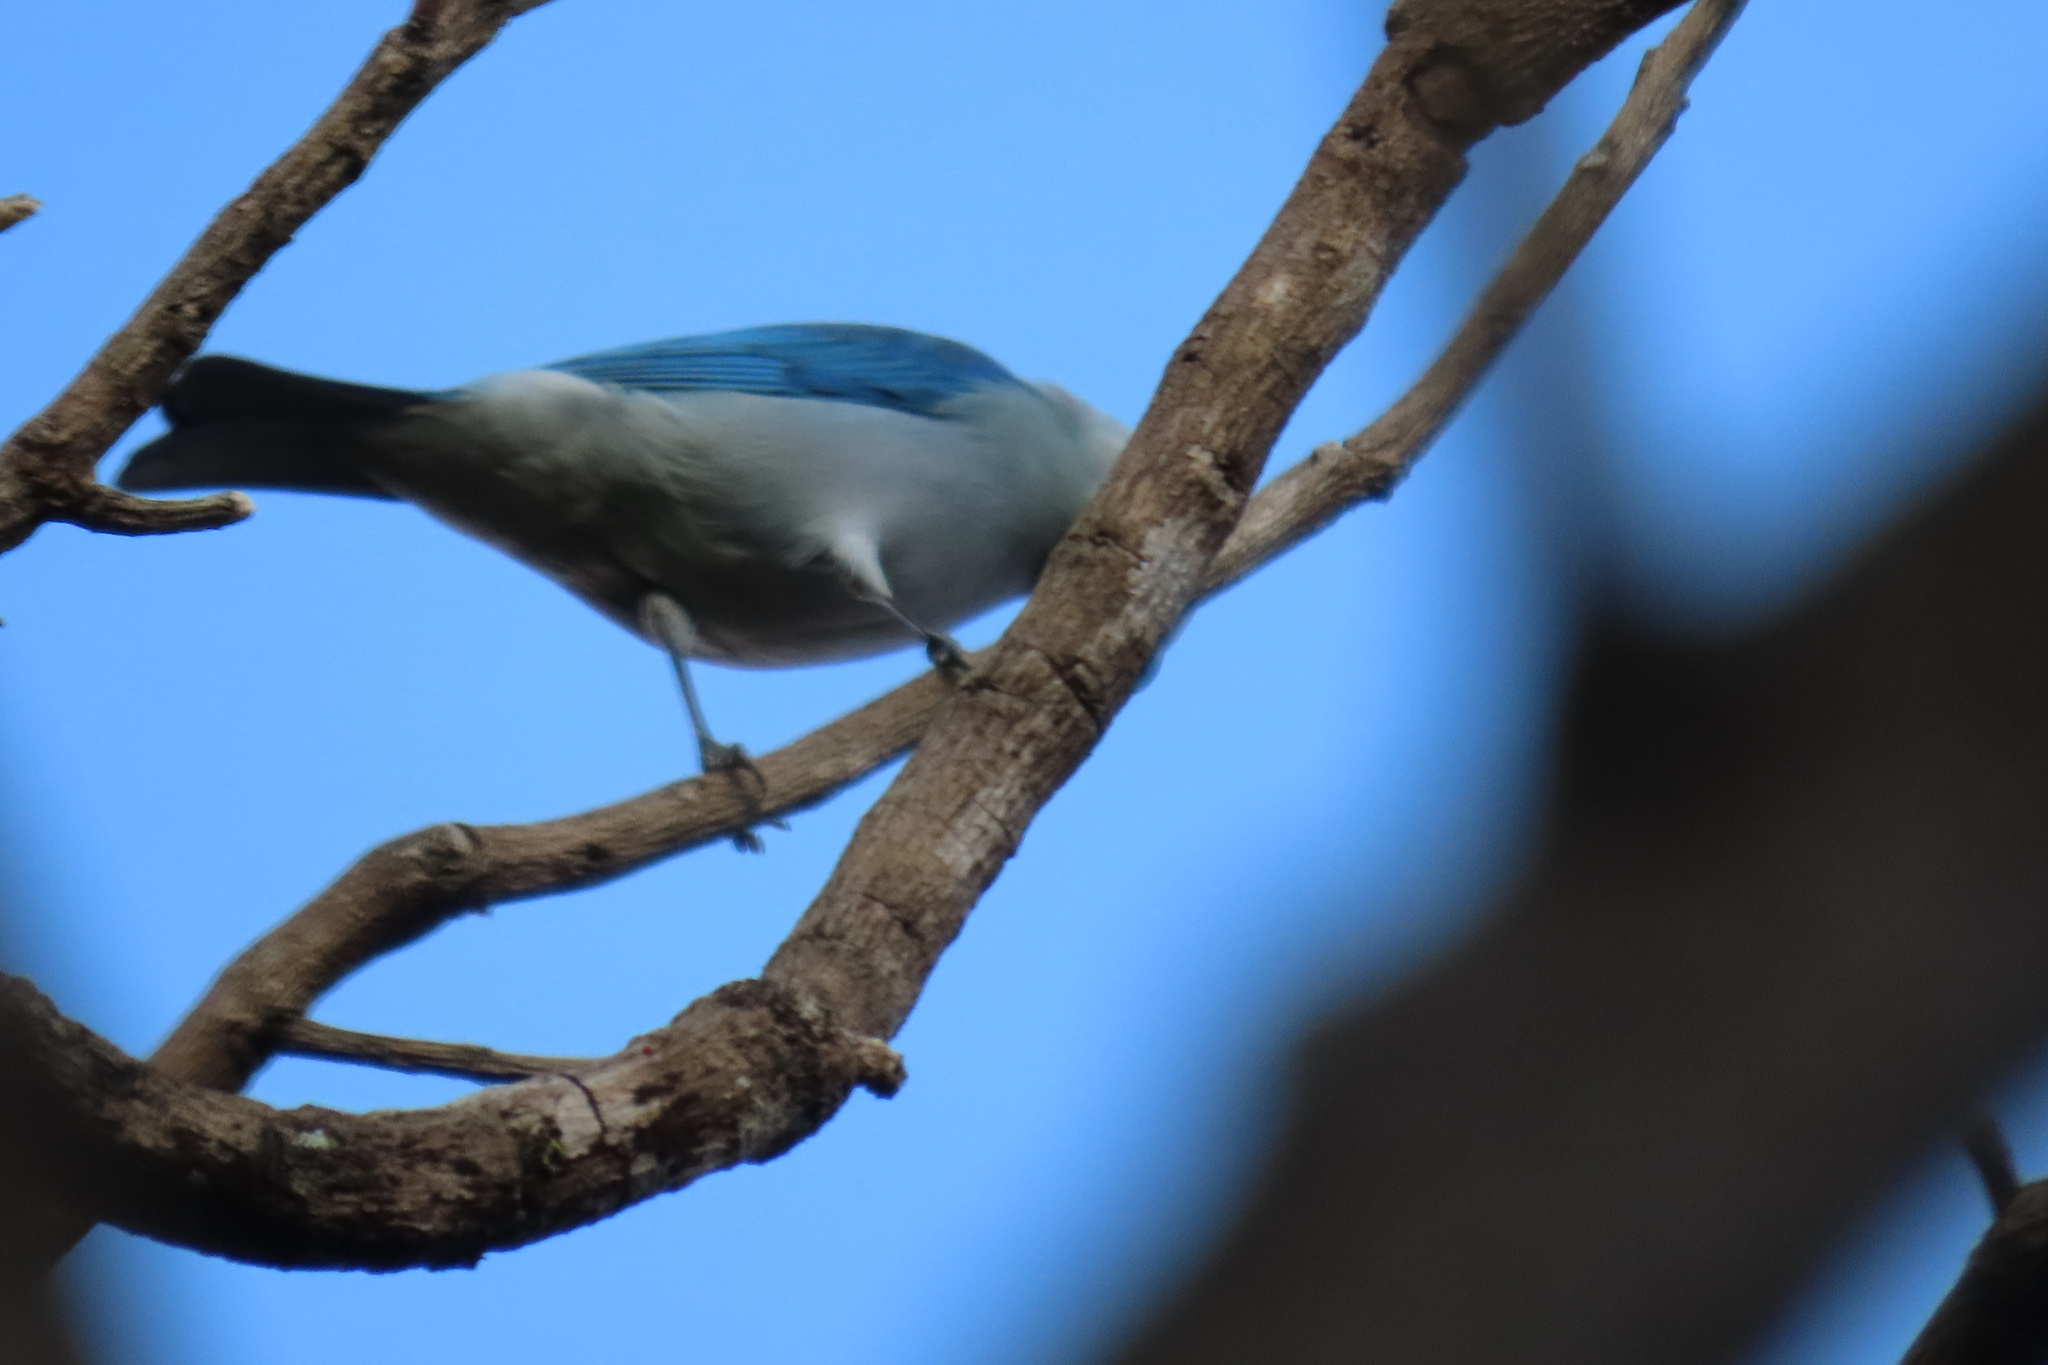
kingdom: Animalia
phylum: Chordata
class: Aves
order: Passeriformes
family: Thraupidae
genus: Thraupis
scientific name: Thraupis episcopus
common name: Blue-grey tanager
